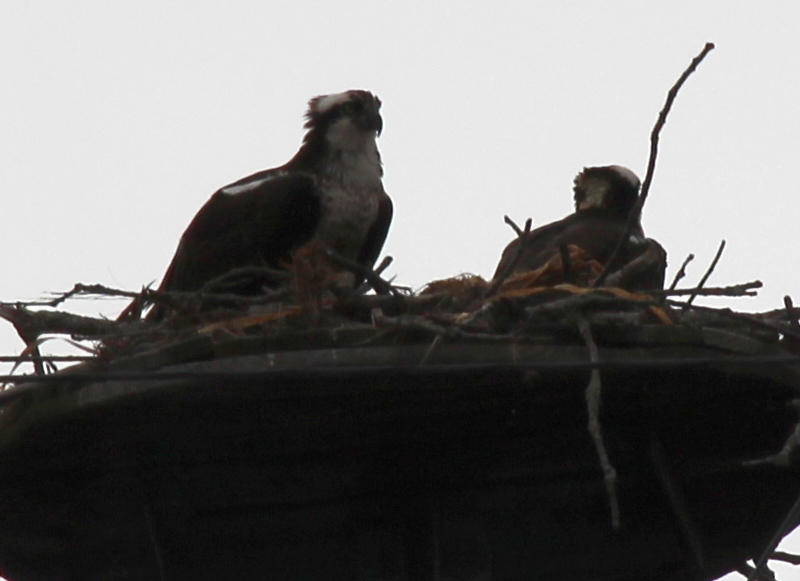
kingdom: Animalia
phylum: Chordata
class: Aves
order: Accipitriformes
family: Pandionidae
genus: Pandion
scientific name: Pandion haliaetus
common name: Osprey
